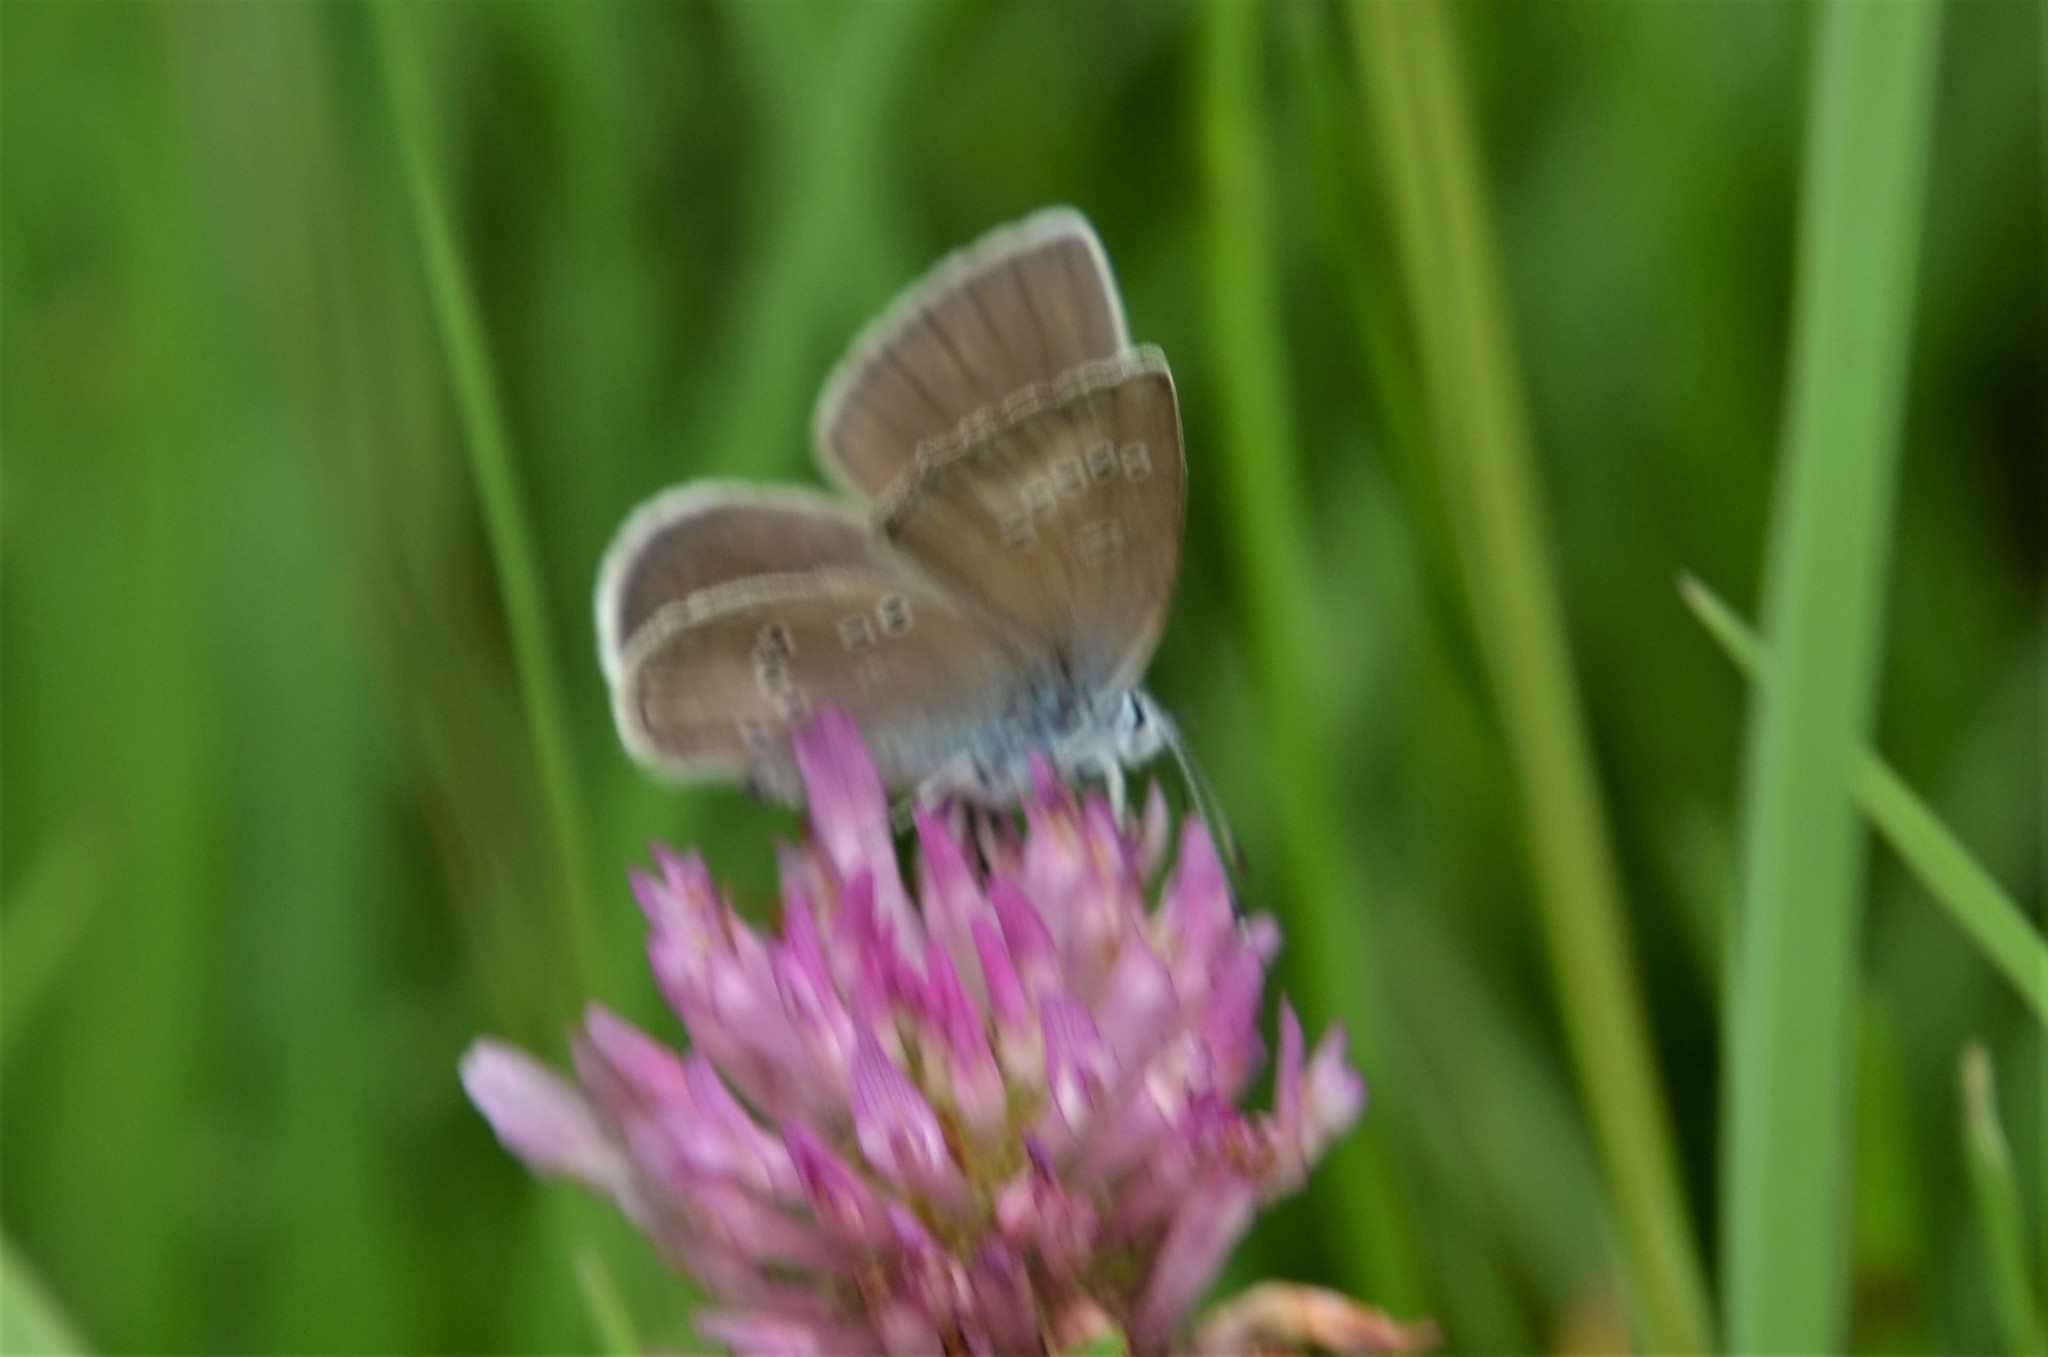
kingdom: Animalia
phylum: Arthropoda
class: Insecta
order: Lepidoptera
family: Lycaenidae
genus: Cyaniris
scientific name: Cyaniris semiargus
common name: Mazarine blue
